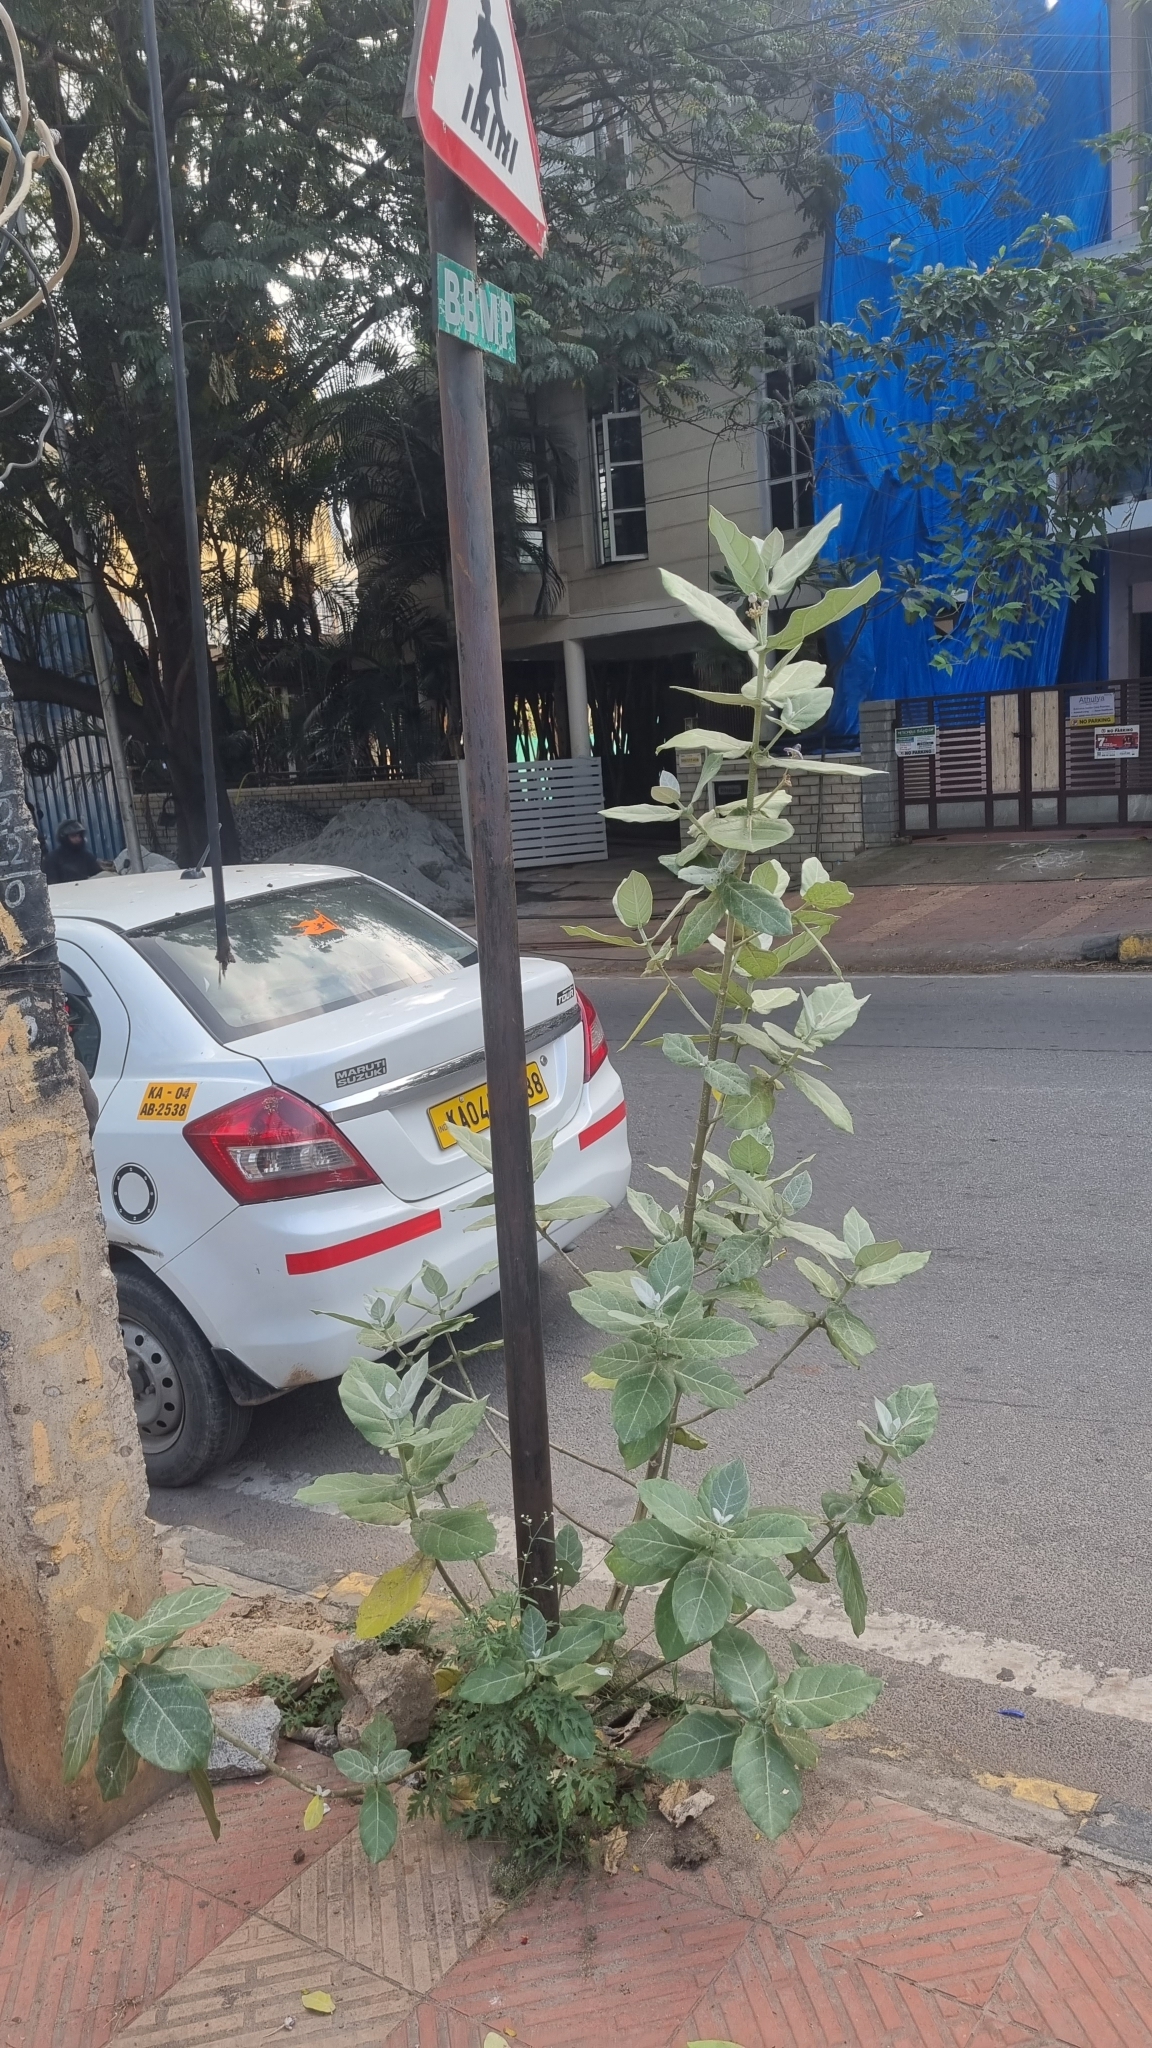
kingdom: Plantae
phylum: Tracheophyta
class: Magnoliopsida
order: Gentianales
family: Apocynaceae
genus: Calotropis
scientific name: Calotropis gigantea
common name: Crown flower
